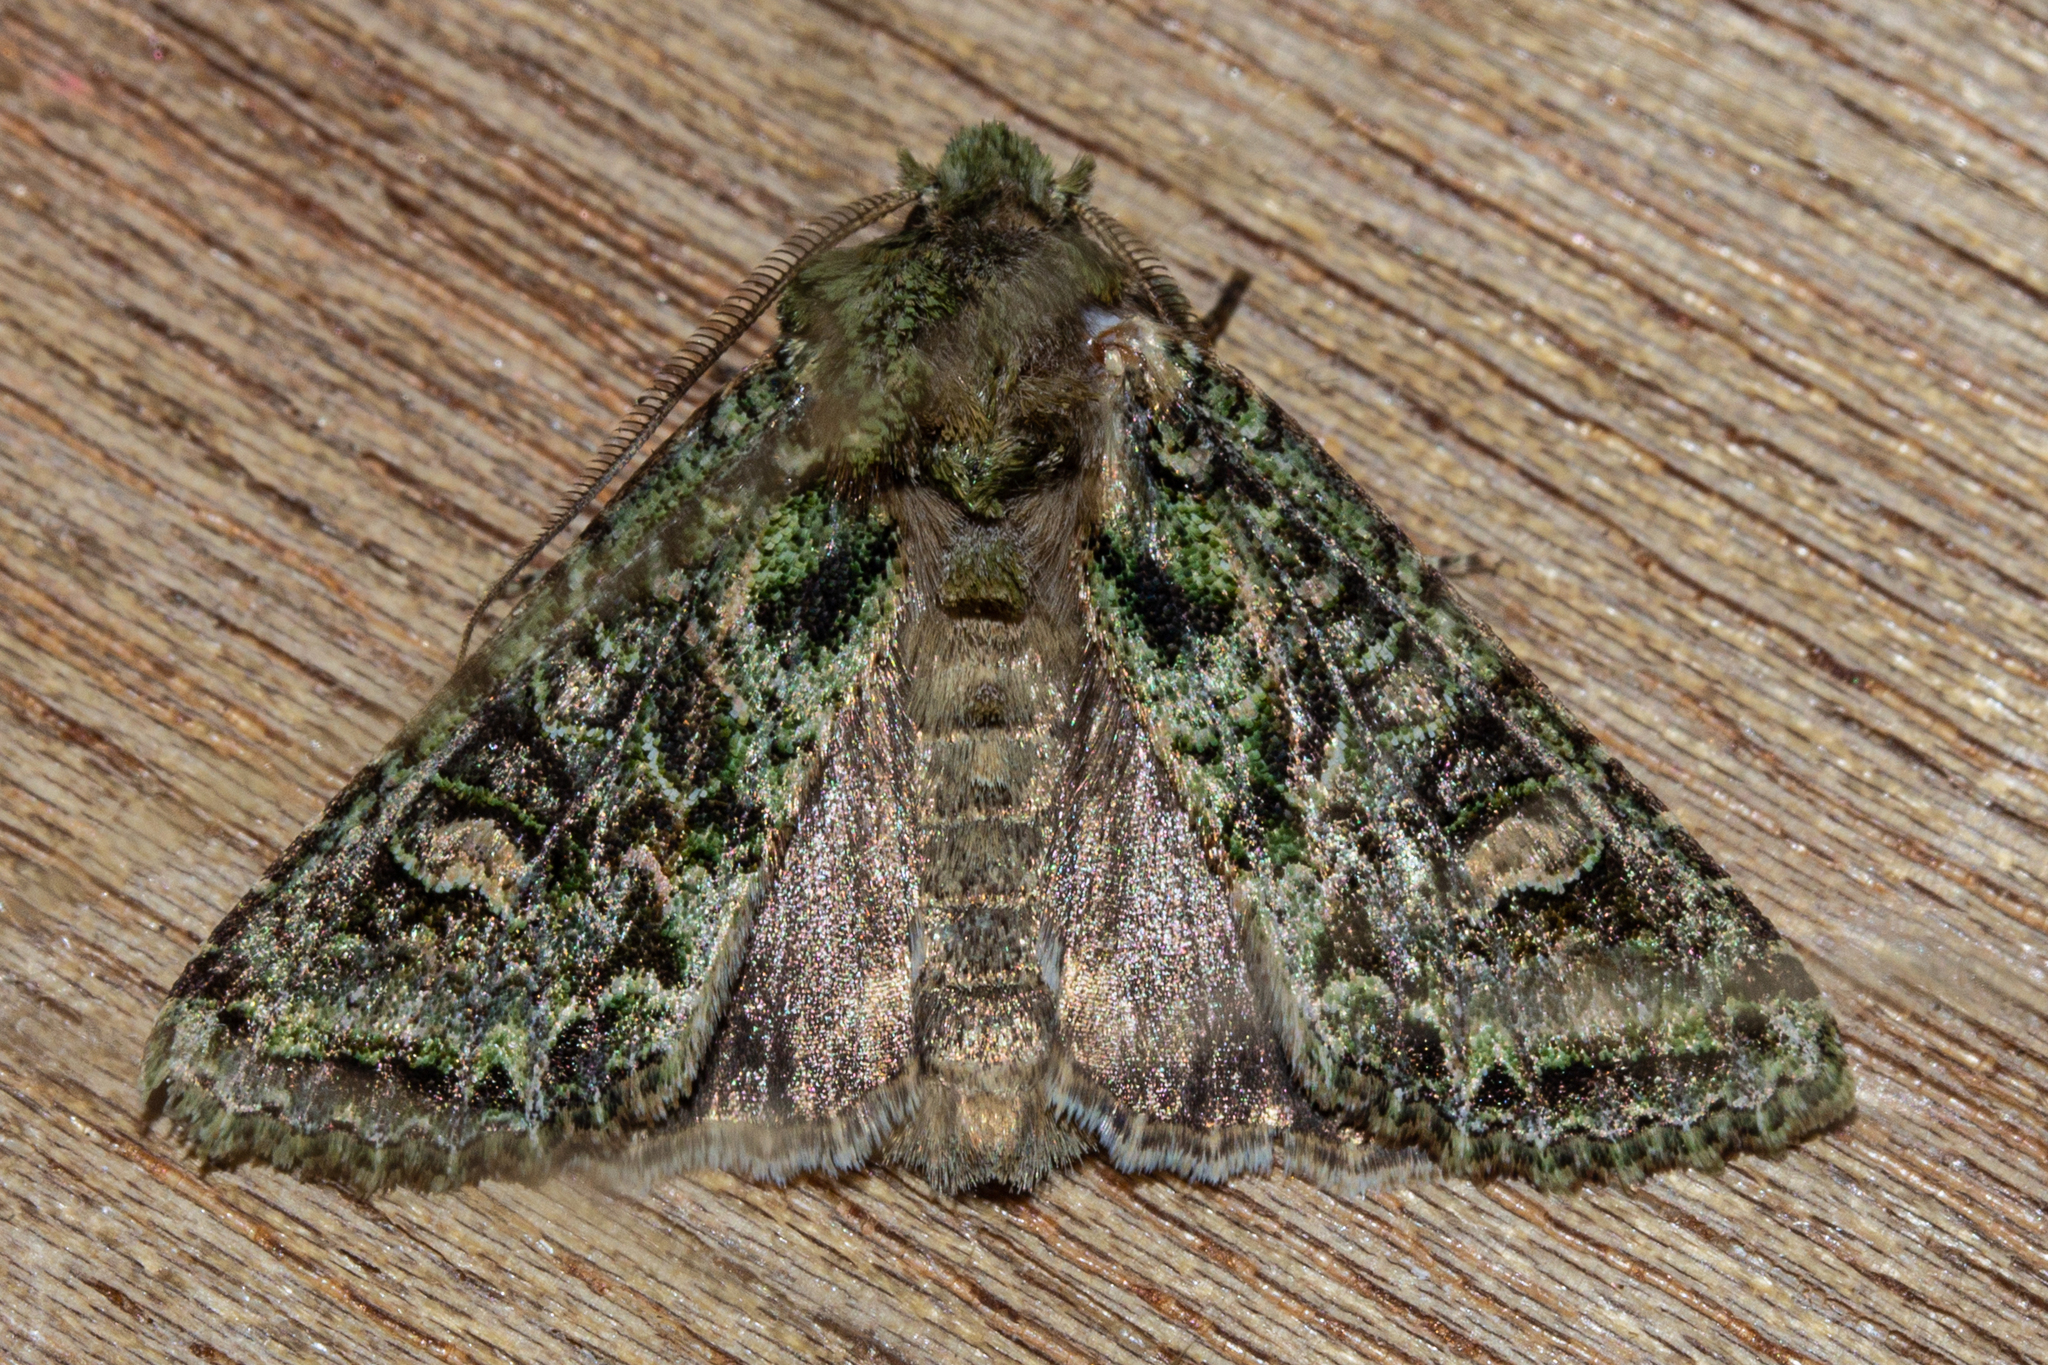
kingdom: Animalia
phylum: Arthropoda
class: Insecta
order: Lepidoptera
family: Noctuidae
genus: Ichneutica
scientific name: Ichneutica
